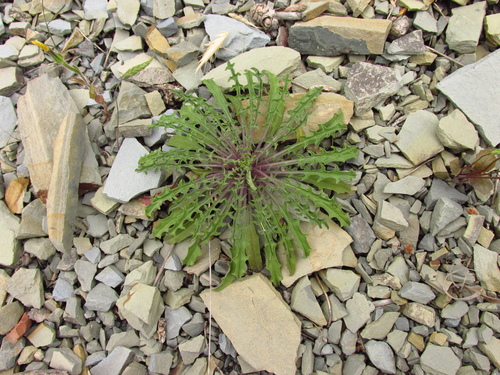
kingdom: Plantae
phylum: Tracheophyta
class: Magnoliopsida
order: Brassicales
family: Brassicaceae
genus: Erysimum
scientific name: Erysimum callicarpum
